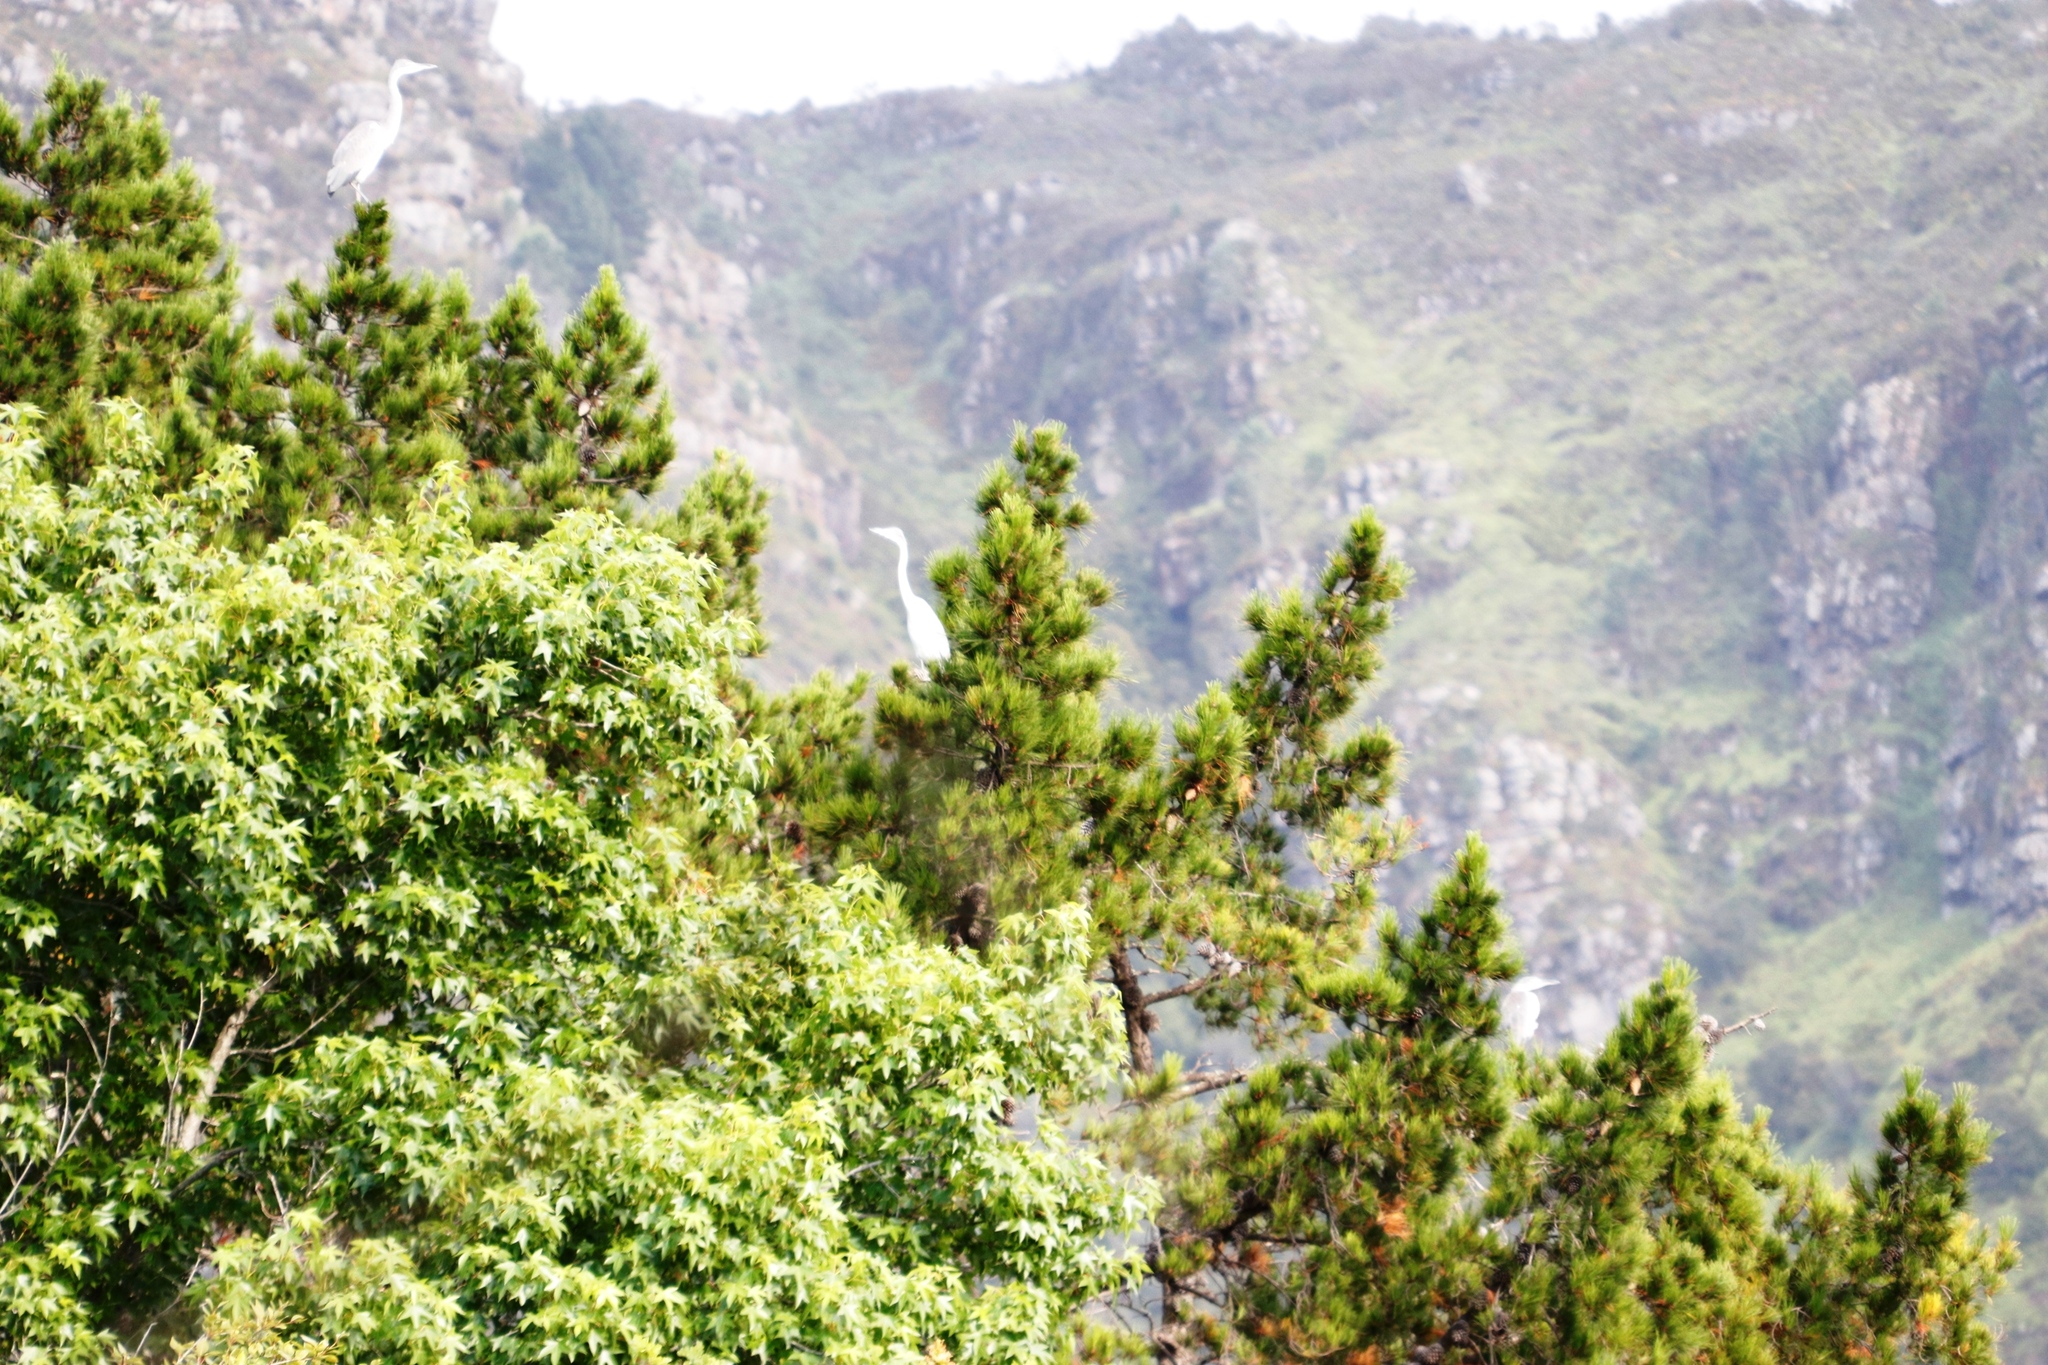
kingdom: Animalia
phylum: Chordata
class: Aves
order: Pelecaniformes
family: Ardeidae
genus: Ardea
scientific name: Ardea cinerea
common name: Grey heron
